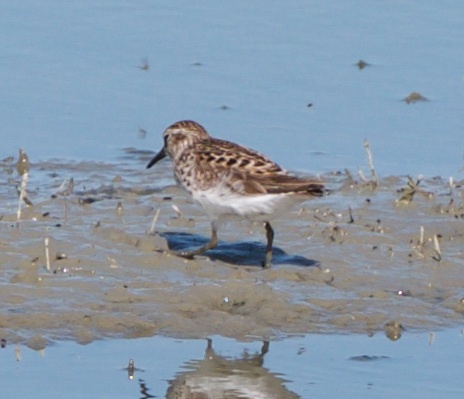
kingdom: Animalia
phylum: Chordata
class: Aves
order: Charadriiformes
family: Scolopacidae
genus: Calidris
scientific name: Calidris minutilla
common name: Least sandpiper
